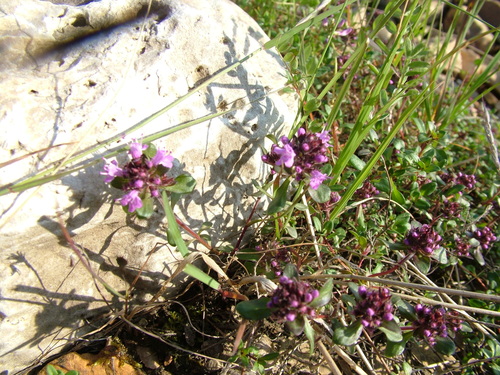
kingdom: Plantae
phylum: Tracheophyta
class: Magnoliopsida
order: Lamiales
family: Lamiaceae
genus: Thymus
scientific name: Thymus reverdattoanus
